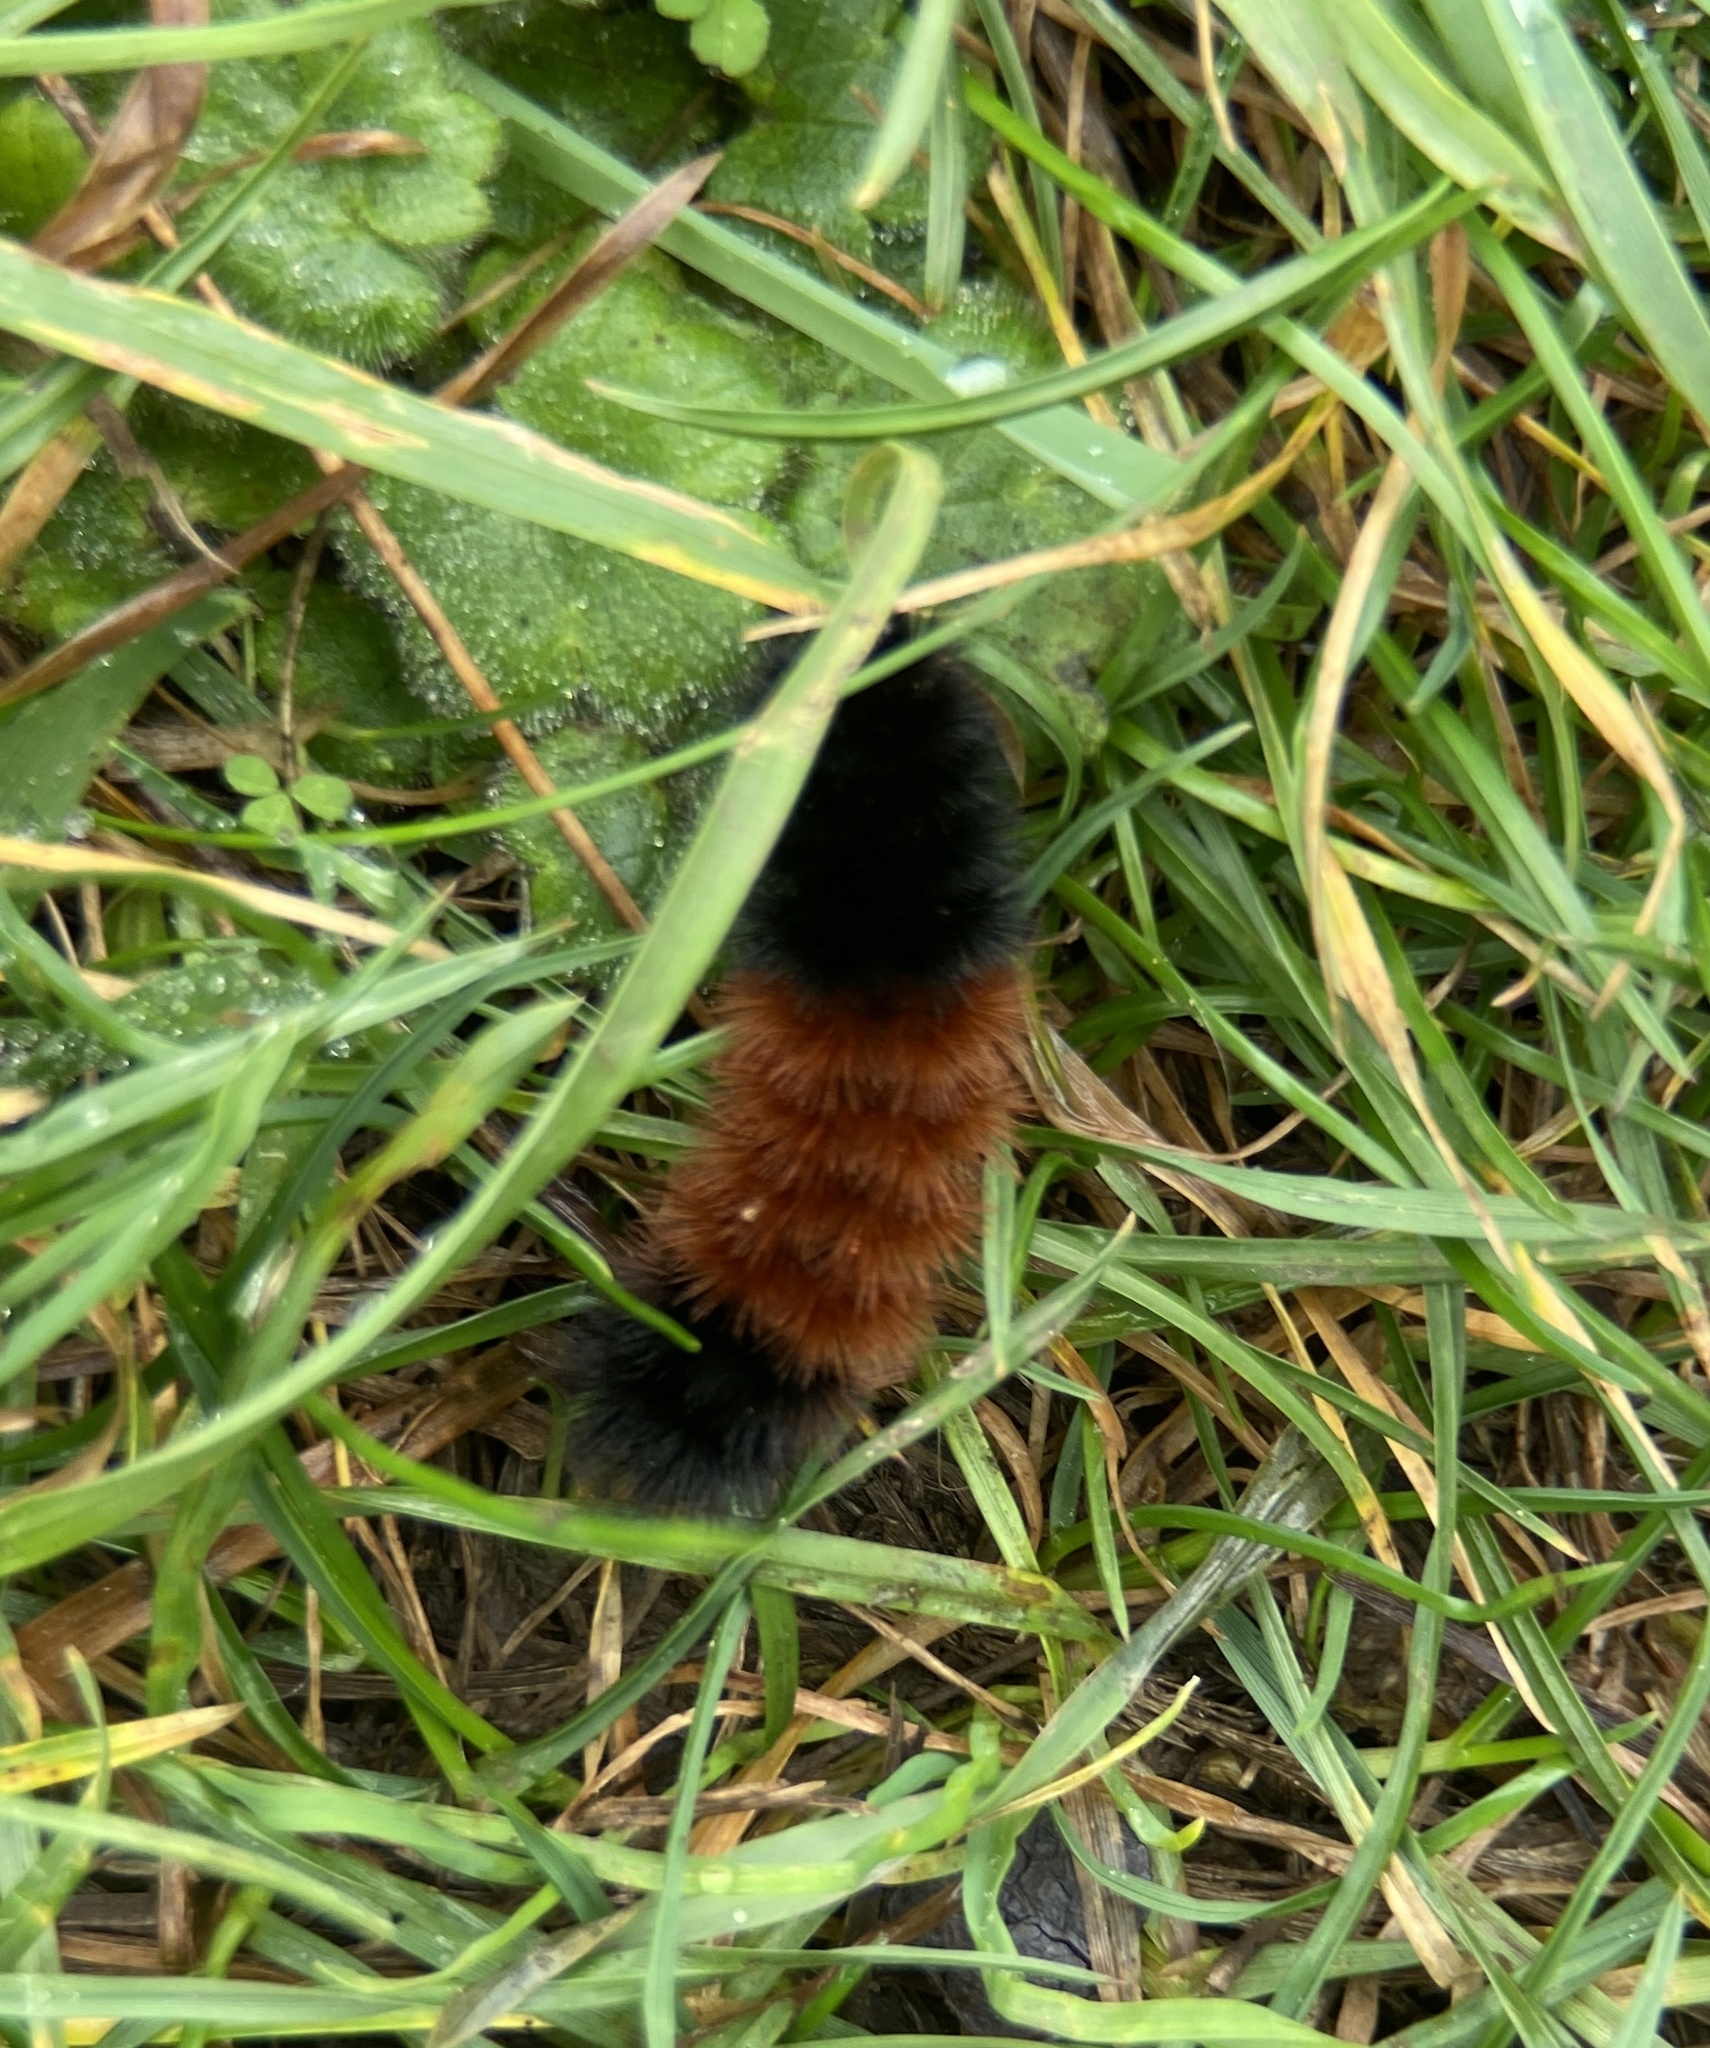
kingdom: Animalia
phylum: Arthropoda
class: Insecta
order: Lepidoptera
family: Erebidae
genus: Pyrrharctia
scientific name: Pyrrharctia isabella
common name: Isabella tiger moth
